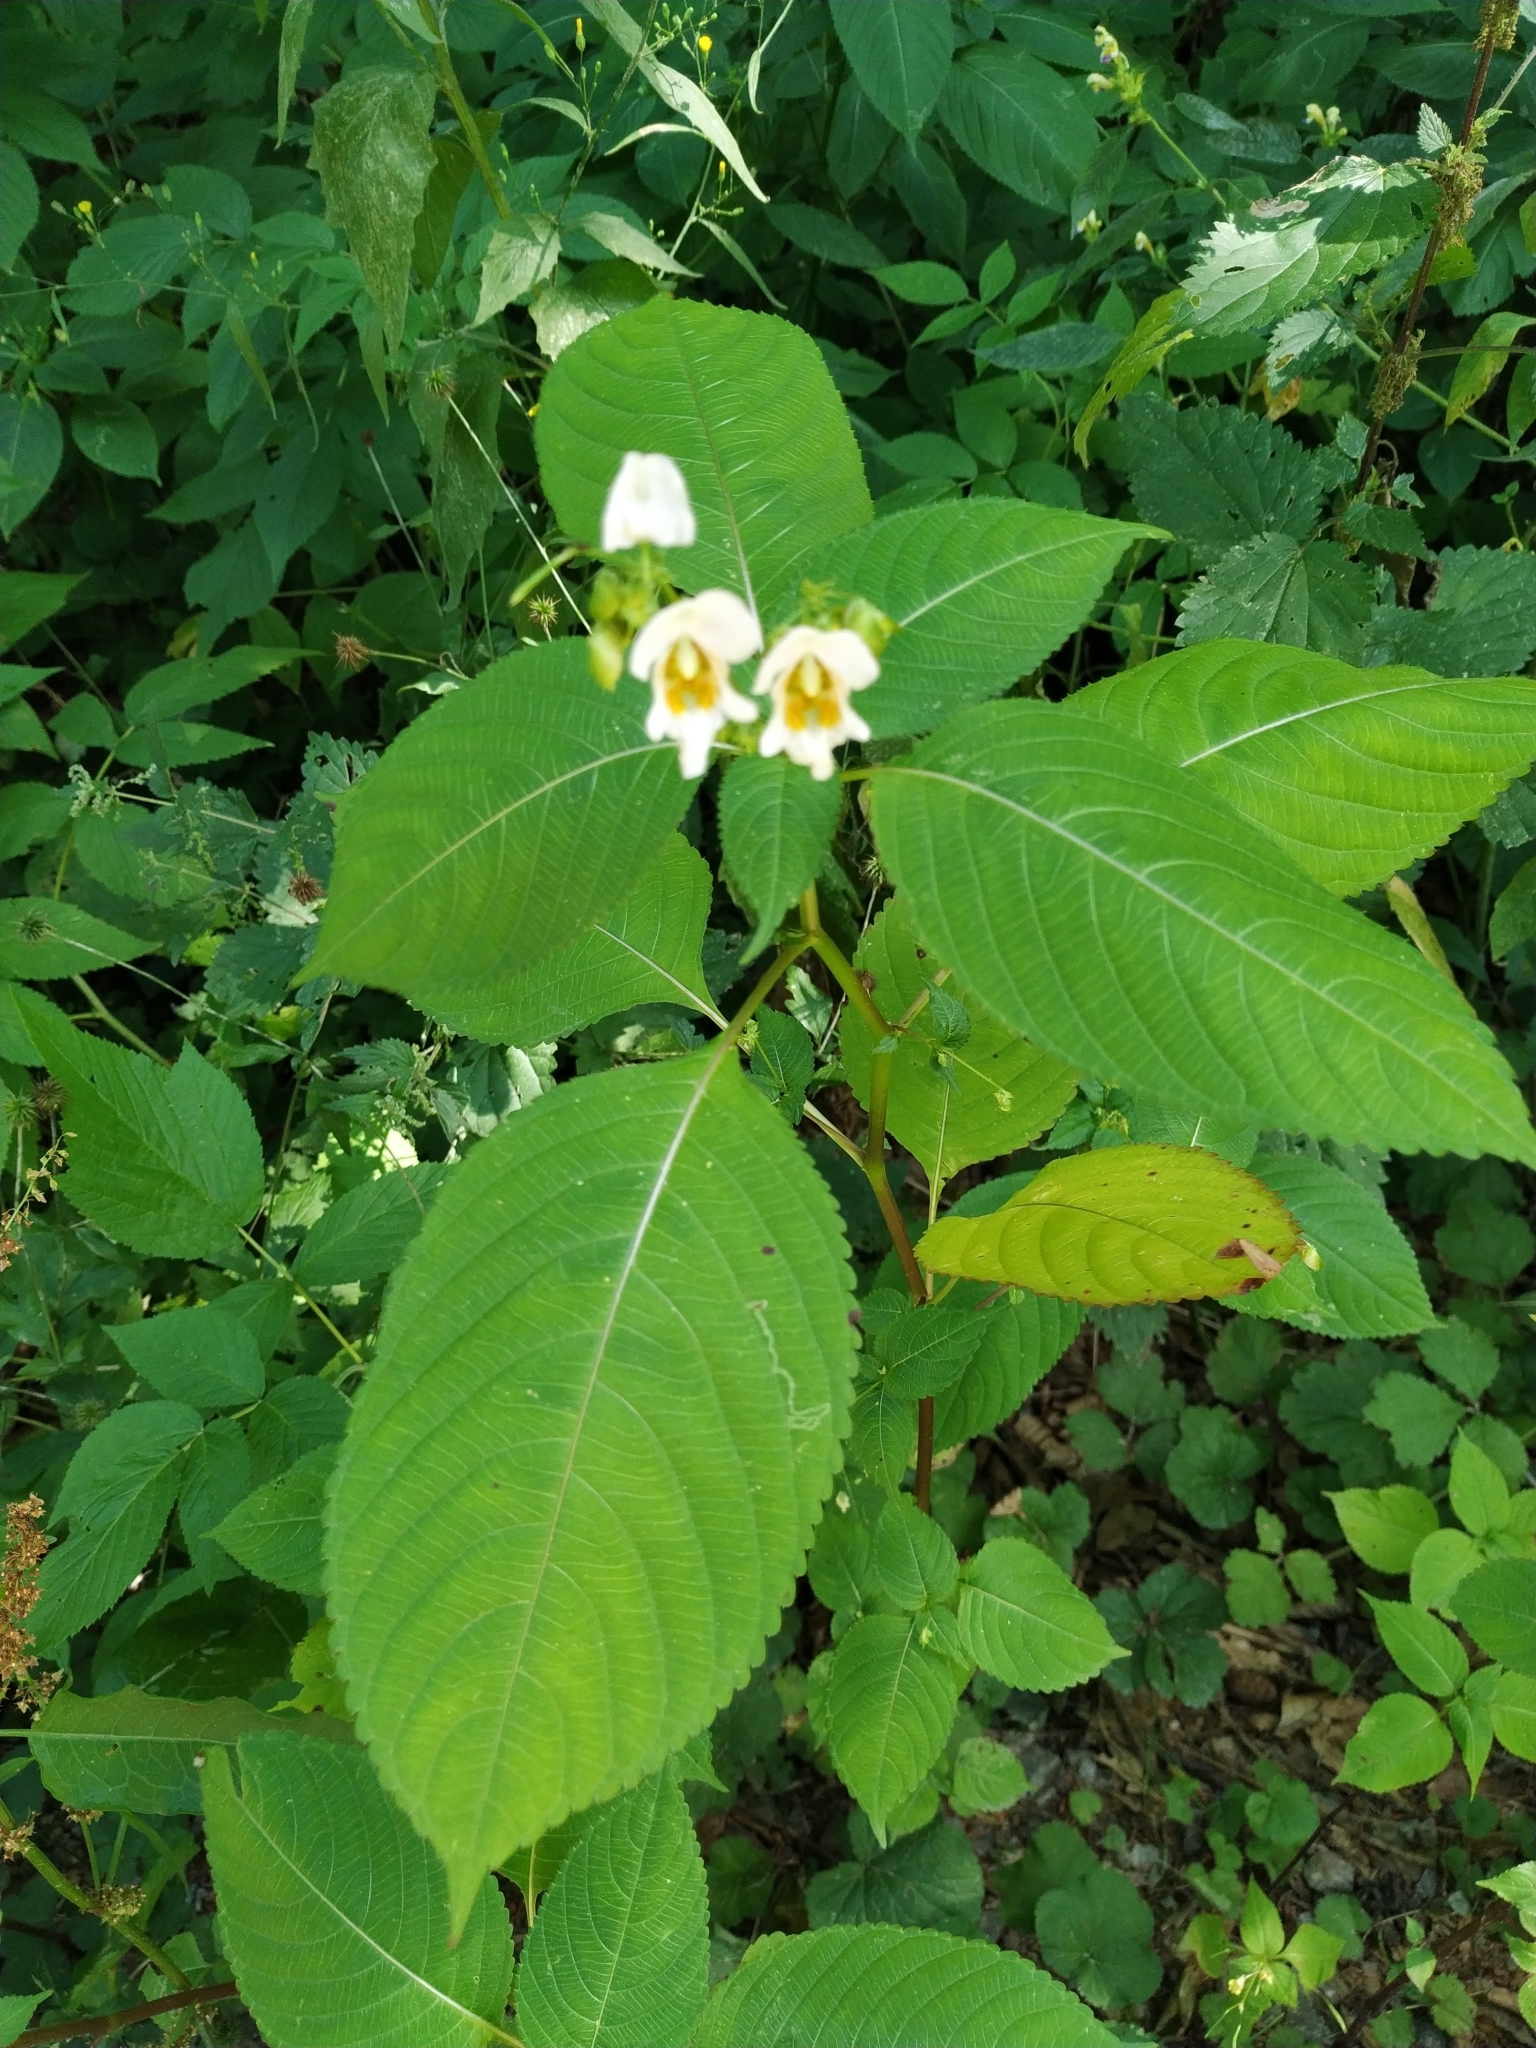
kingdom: Plantae
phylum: Tracheophyta
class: Magnoliopsida
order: Ericales
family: Balsaminaceae
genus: Impatiens
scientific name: Impatiens edgeworthii
